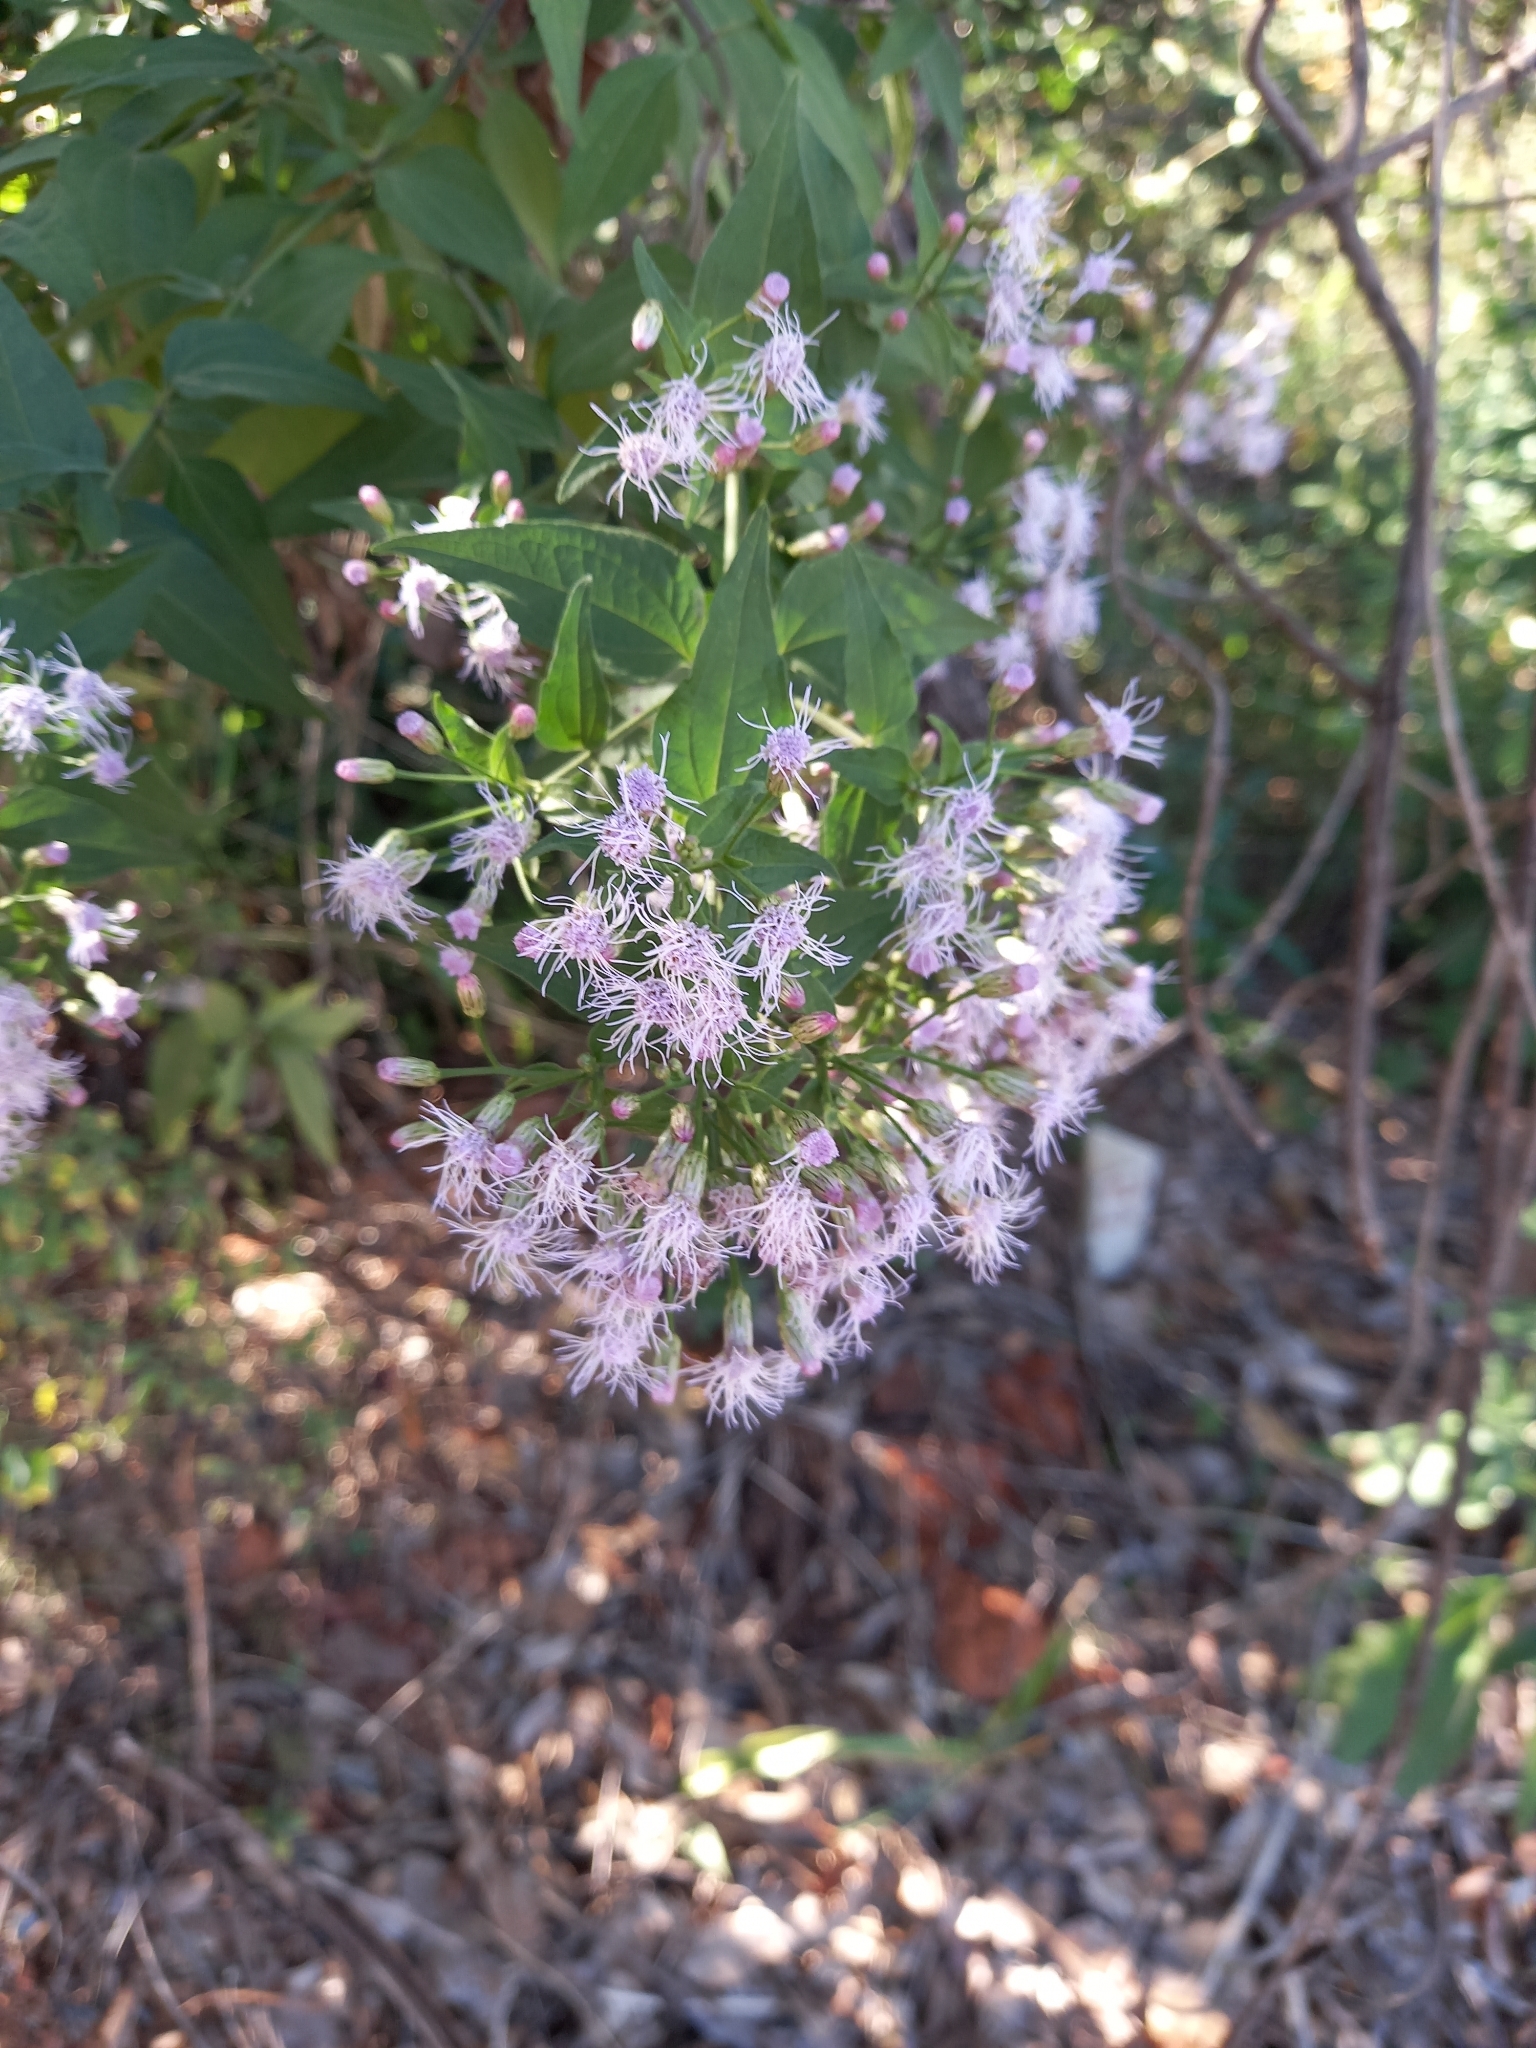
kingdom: Plantae
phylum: Tracheophyta
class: Magnoliopsida
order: Asterales
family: Asteraceae
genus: Chromolaena
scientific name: Chromolaena odorata
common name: Siamweed
